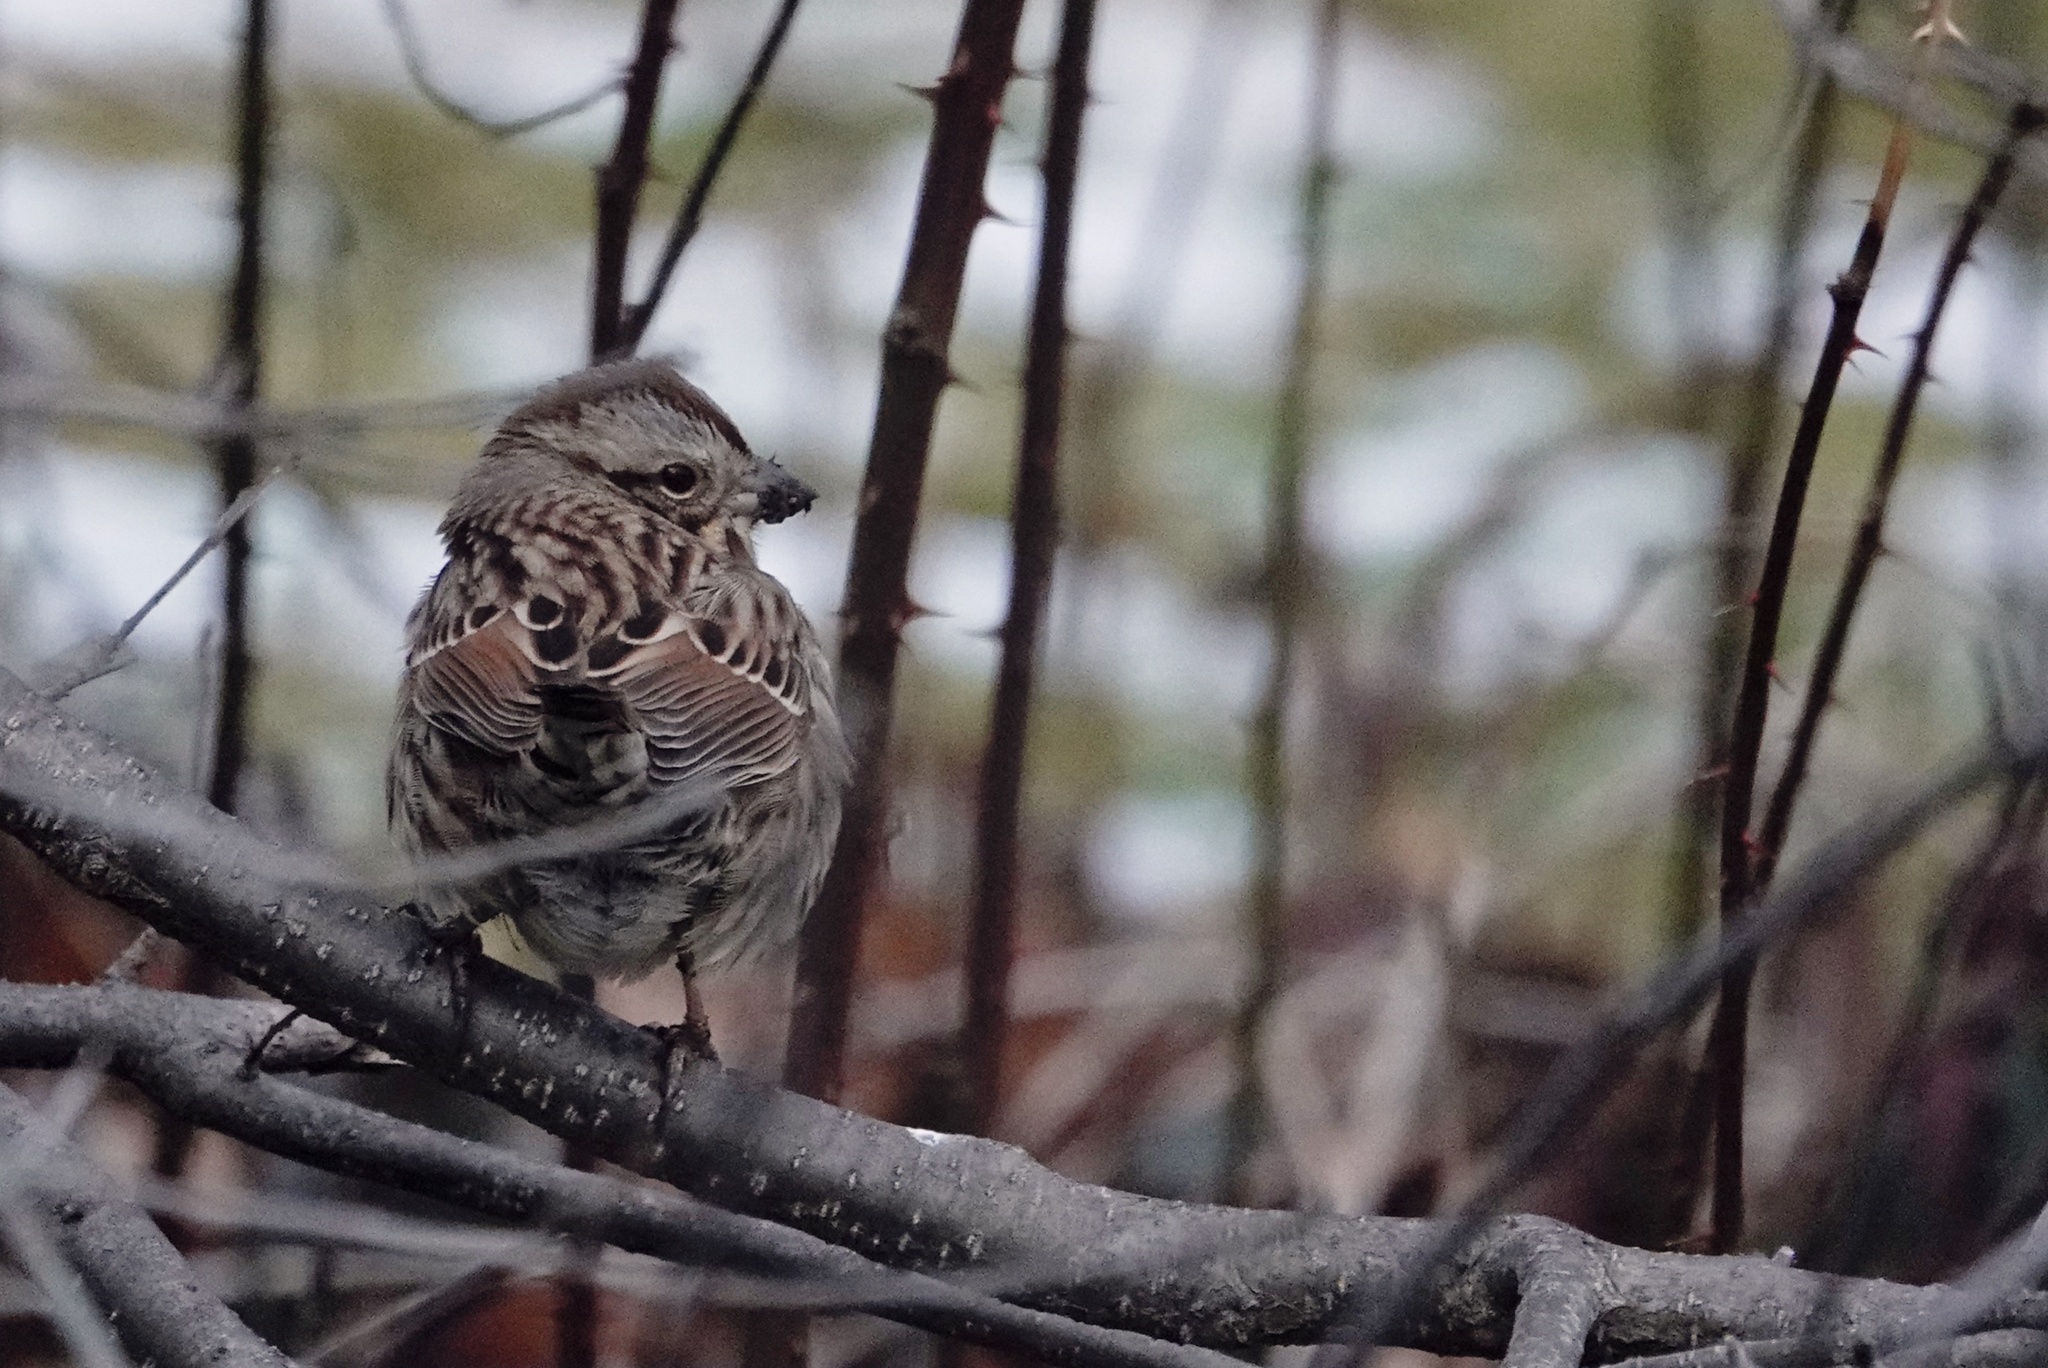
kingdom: Animalia
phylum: Chordata
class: Aves
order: Passeriformes
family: Passerellidae
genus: Melospiza
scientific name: Melospiza melodia
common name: Song sparrow
